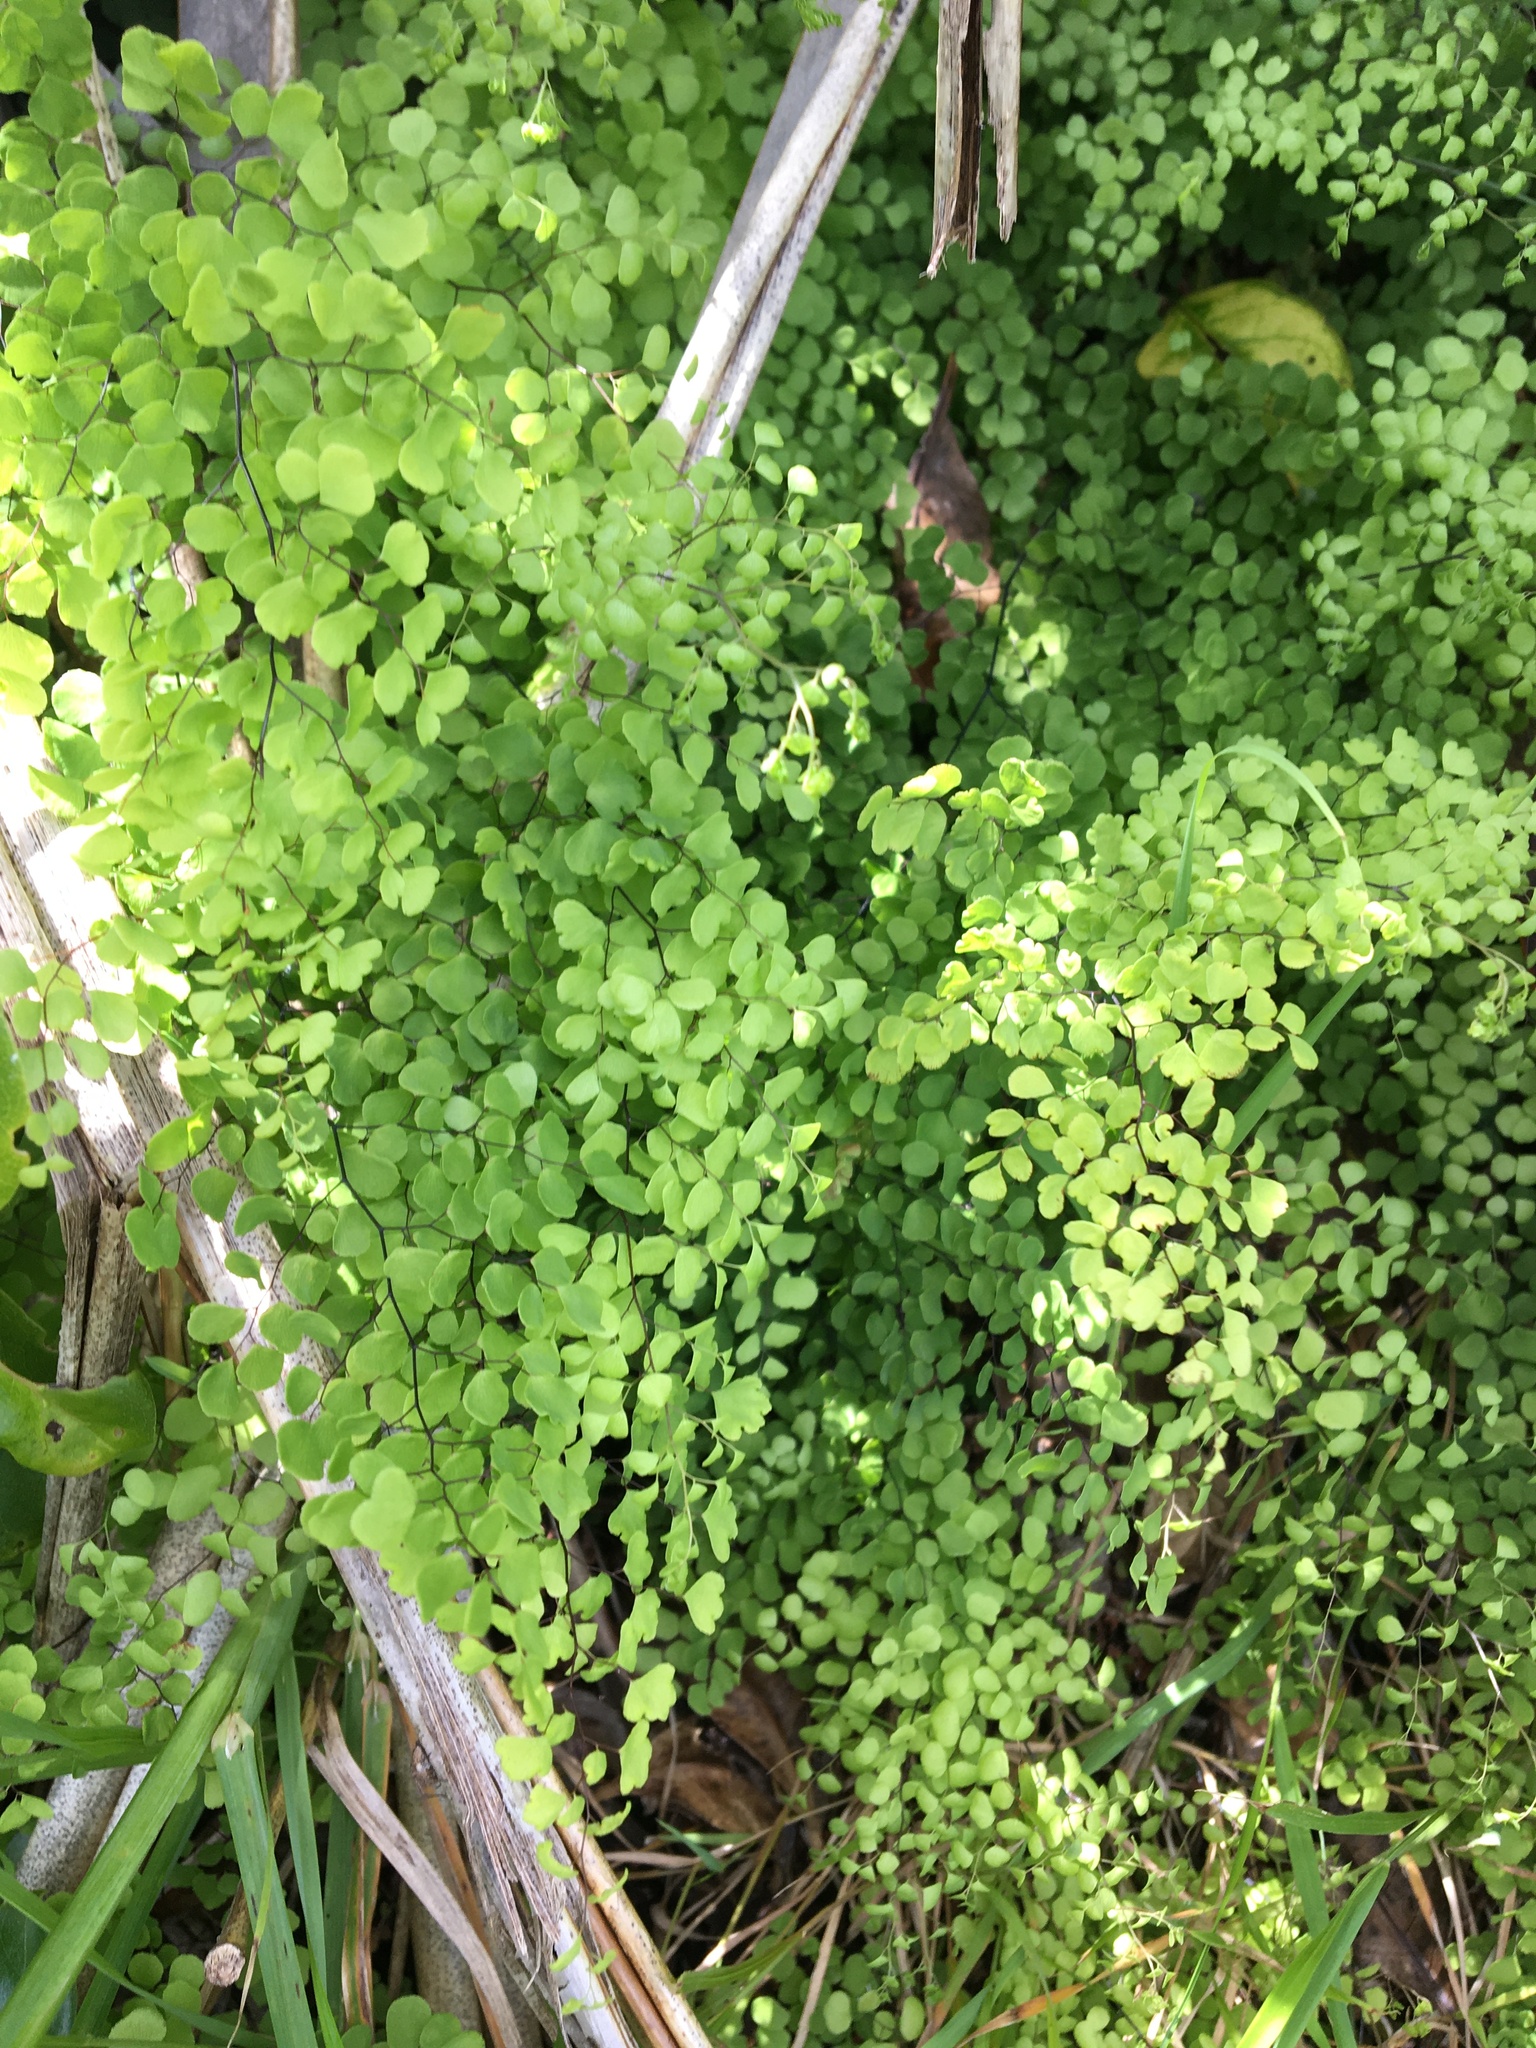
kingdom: Plantae
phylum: Tracheophyta
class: Polypodiopsida
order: Polypodiales
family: Pteridaceae
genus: Adiantum
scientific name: Adiantum aethiopicum
